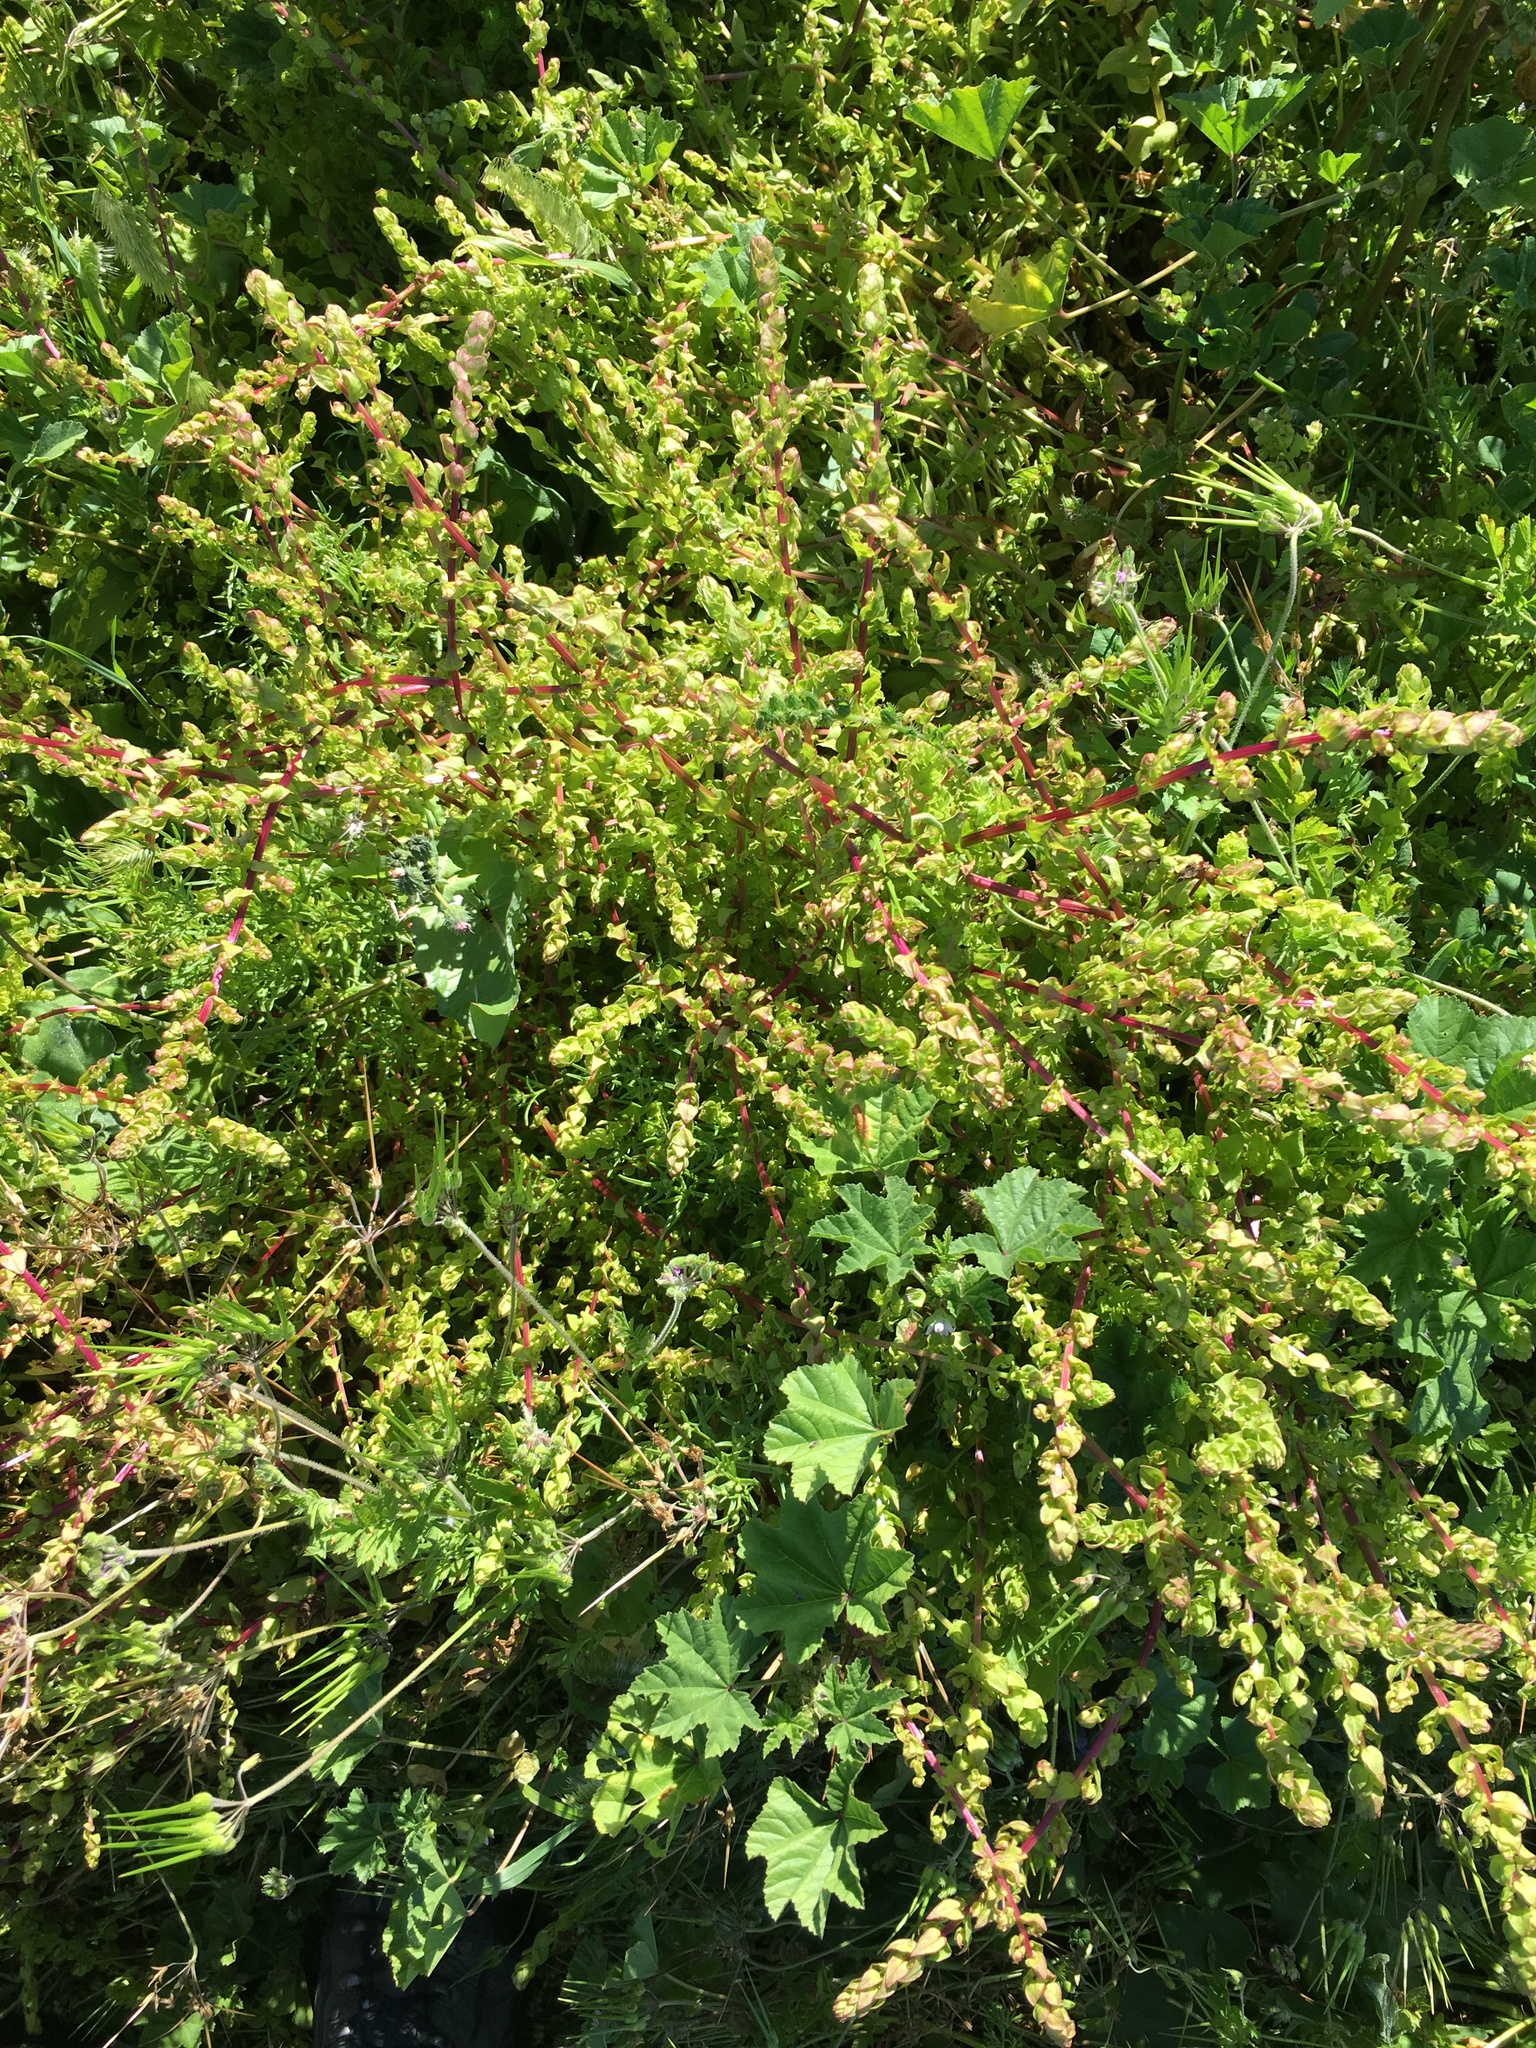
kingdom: Plantae
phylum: Tracheophyta
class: Magnoliopsida
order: Caryophyllales
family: Amaranthaceae
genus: Aphanisma
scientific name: Aphanisma blitoides
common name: Aphanisma
